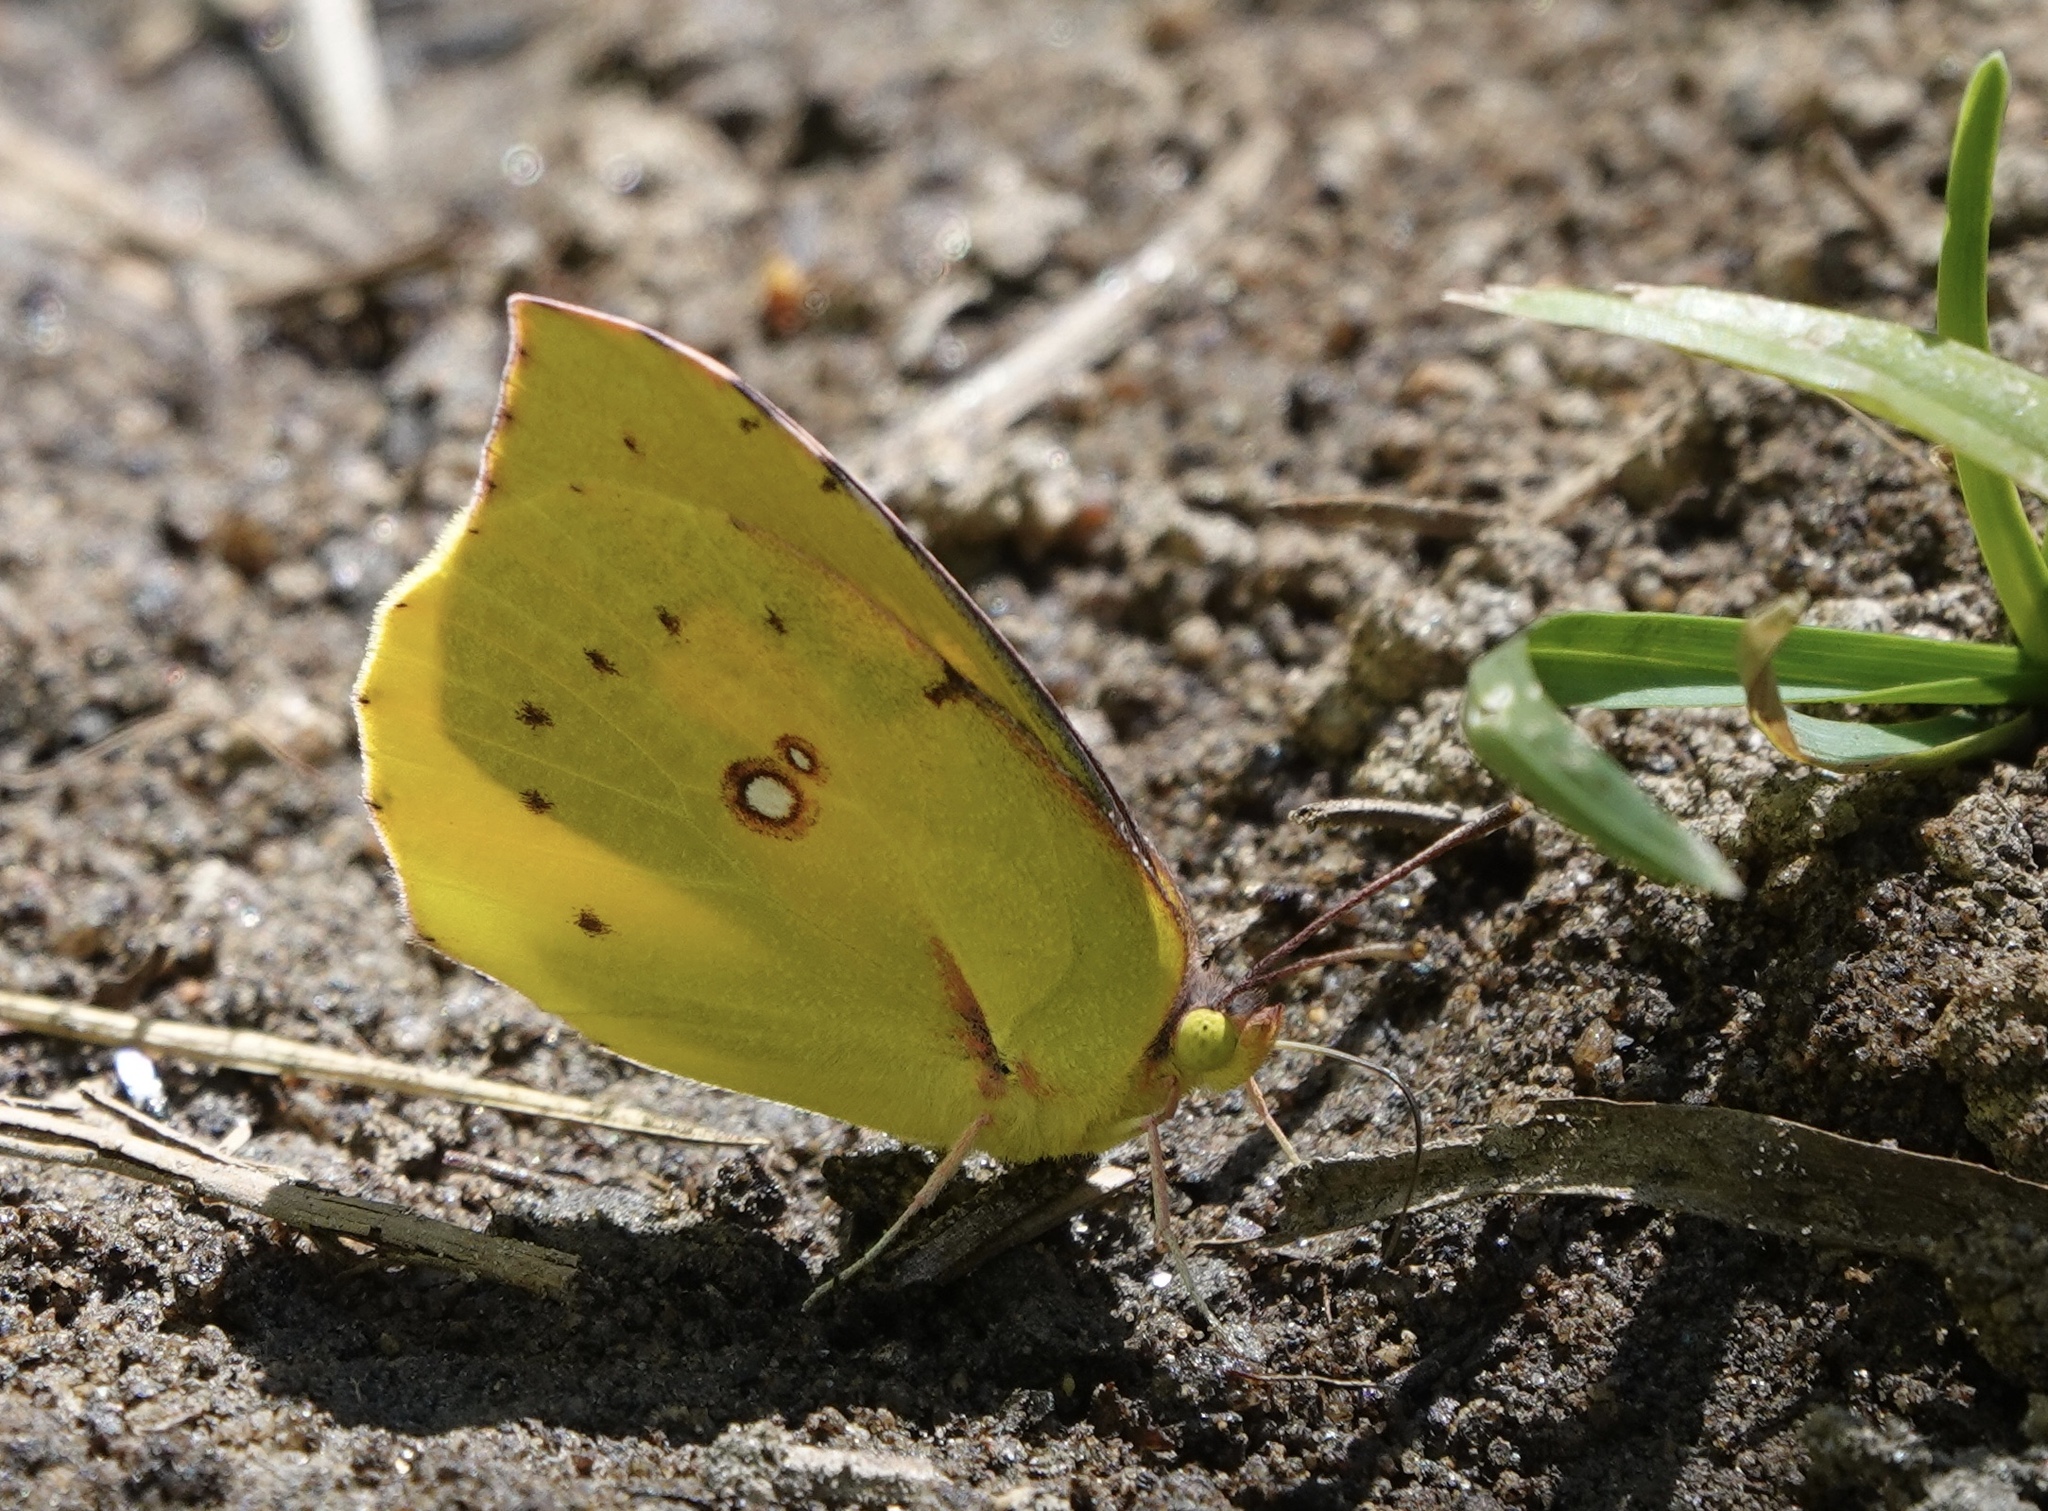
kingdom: Animalia
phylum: Arthropoda
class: Insecta
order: Lepidoptera
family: Pieridae
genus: Zerene
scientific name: Zerene eurydice
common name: California dogface
